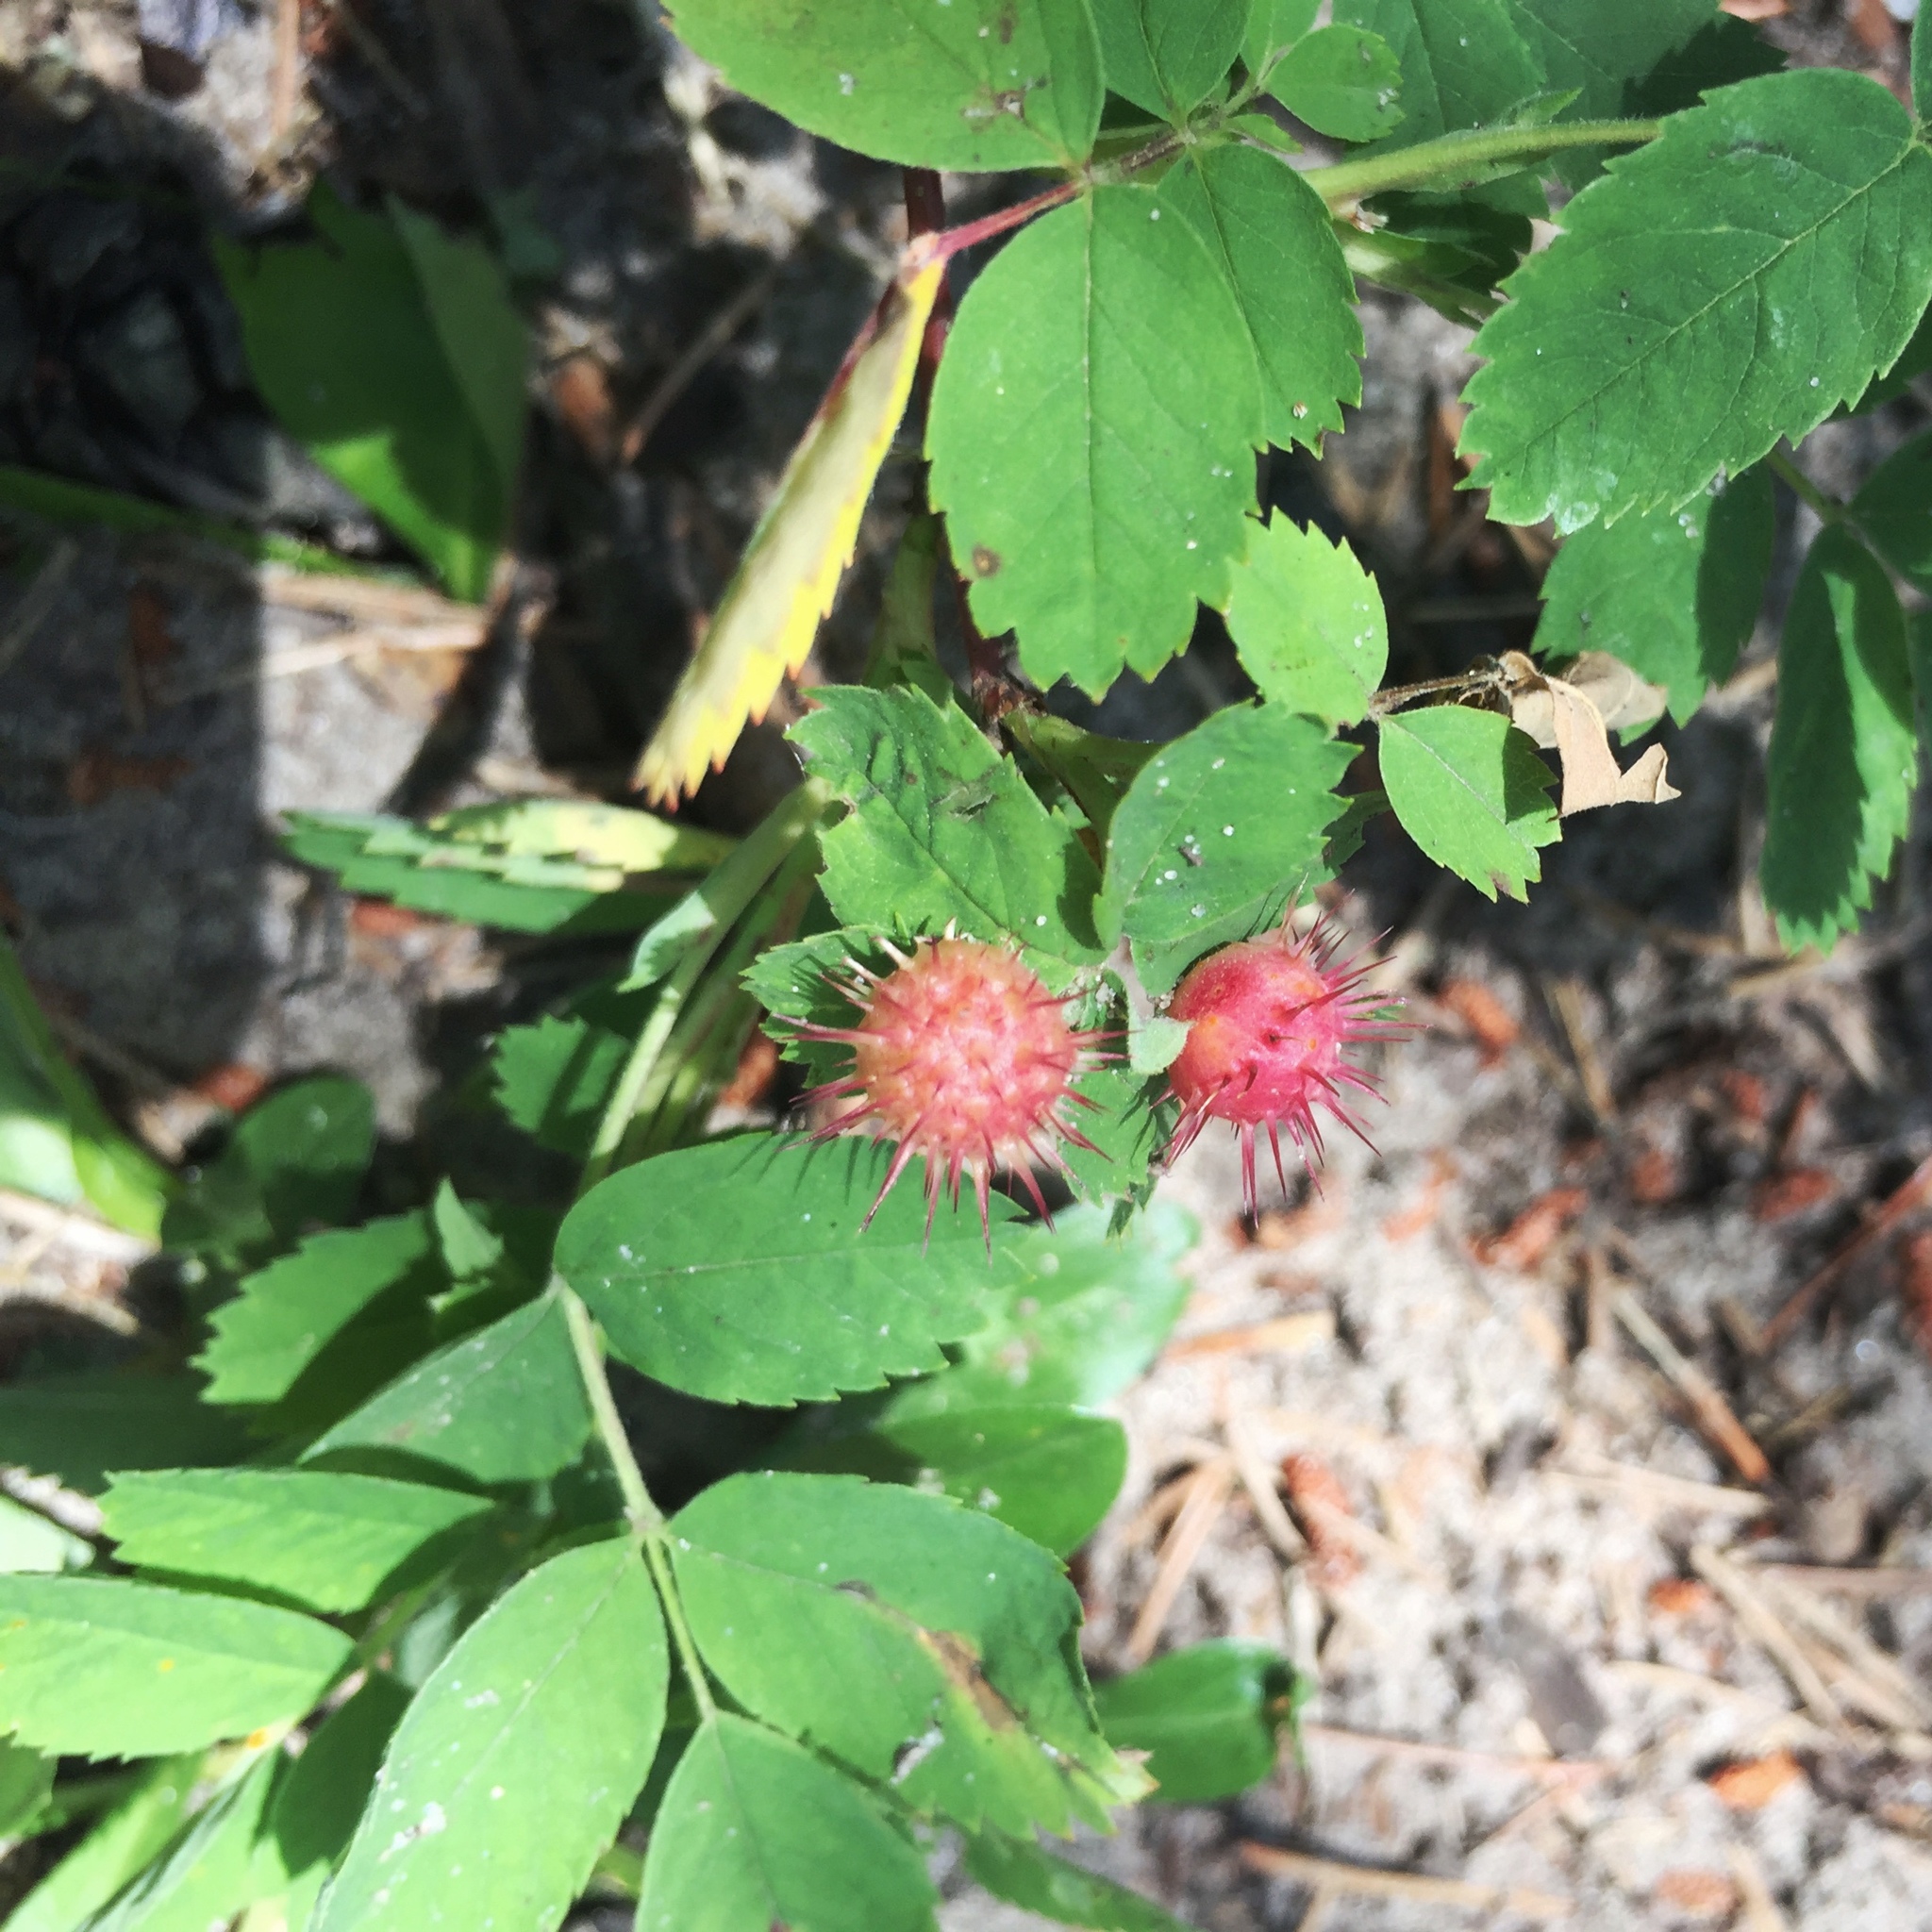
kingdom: Animalia
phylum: Arthropoda
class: Insecta
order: Hymenoptera
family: Cynipidae
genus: Diplolepis
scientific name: Diplolepis polita
